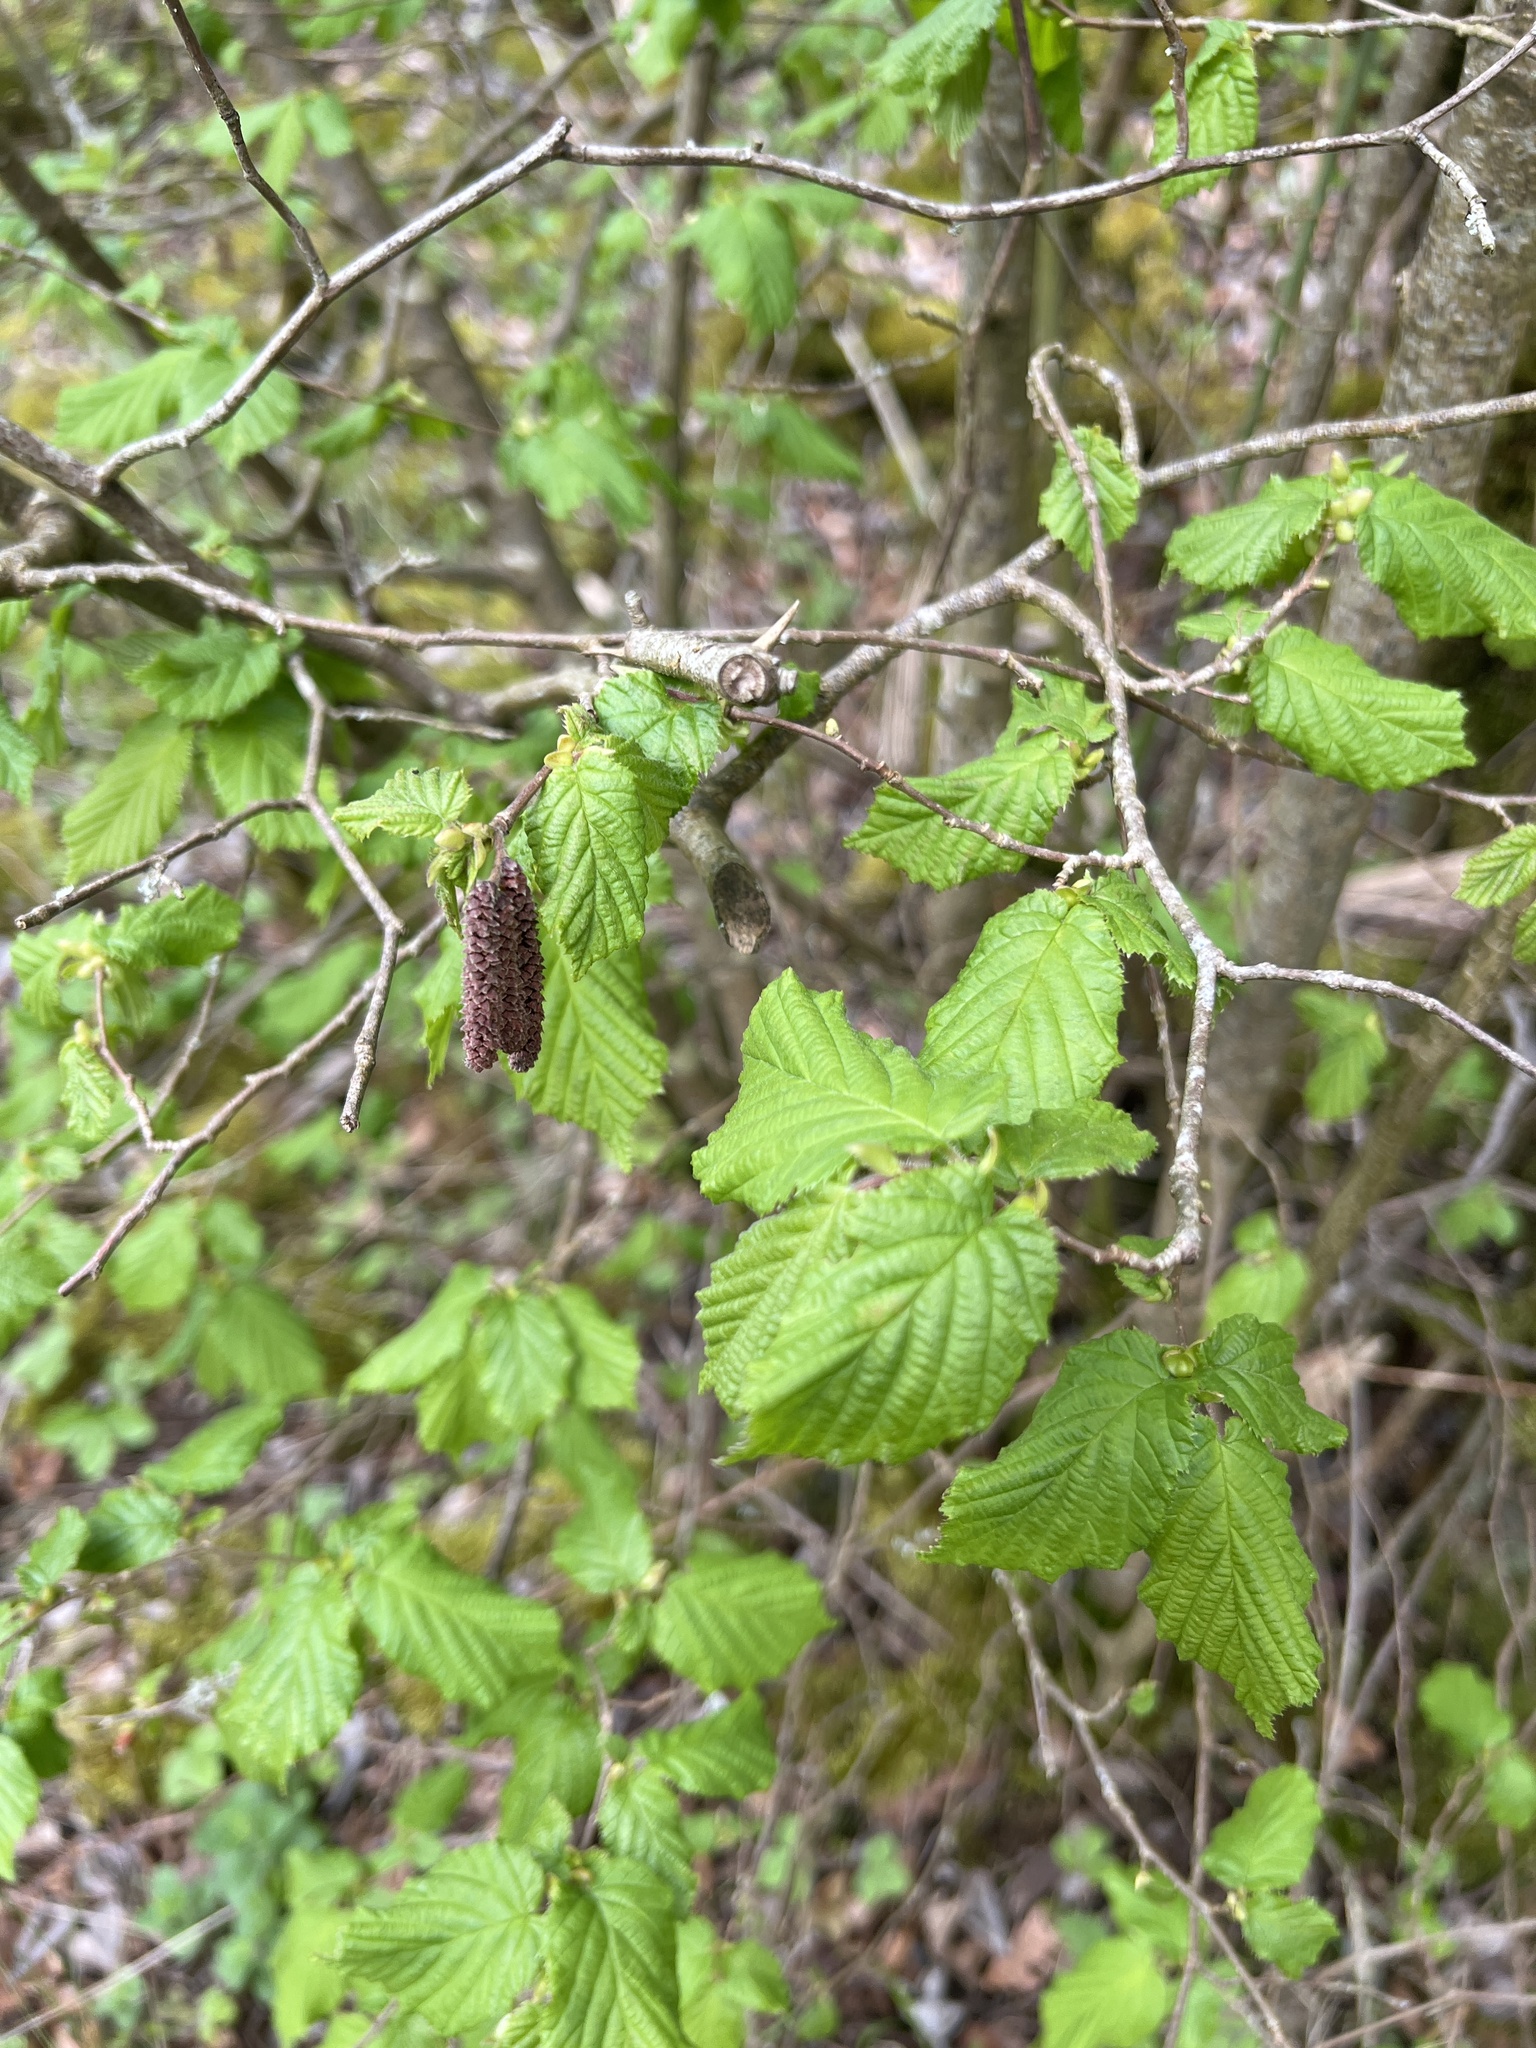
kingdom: Plantae
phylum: Tracheophyta
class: Magnoliopsida
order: Fagales
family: Betulaceae
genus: Corylus
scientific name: Corylus avellana
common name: European hazel
